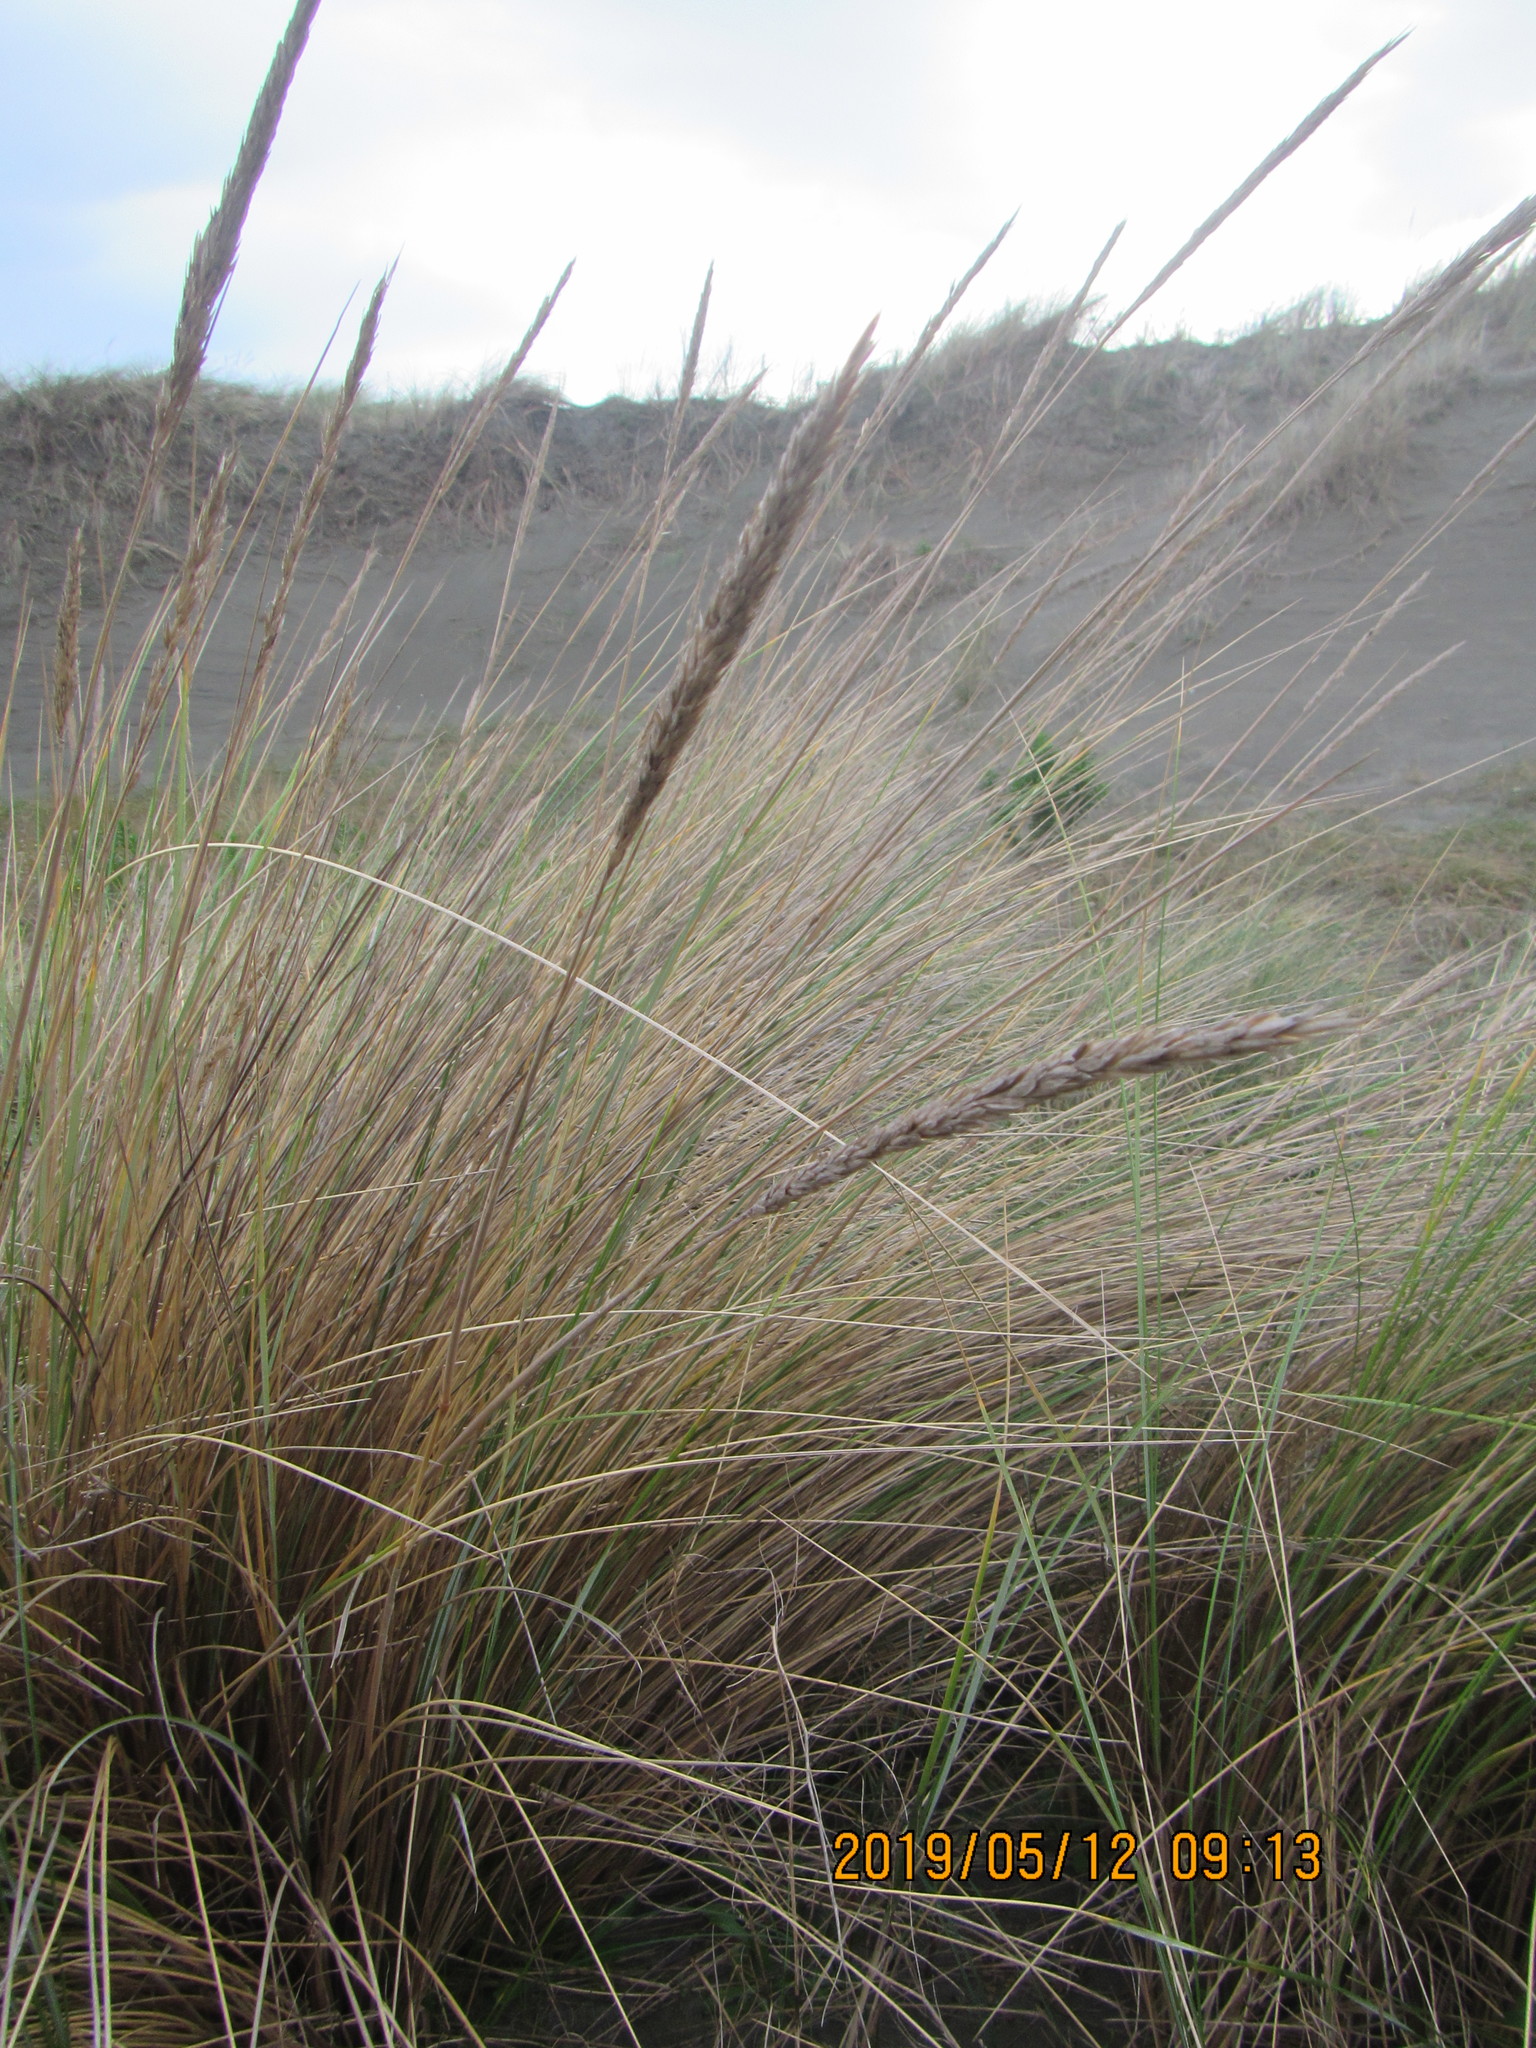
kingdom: Plantae
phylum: Tracheophyta
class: Liliopsida
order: Poales
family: Poaceae
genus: Calamagrostis
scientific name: Calamagrostis arenaria
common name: European beachgrass
